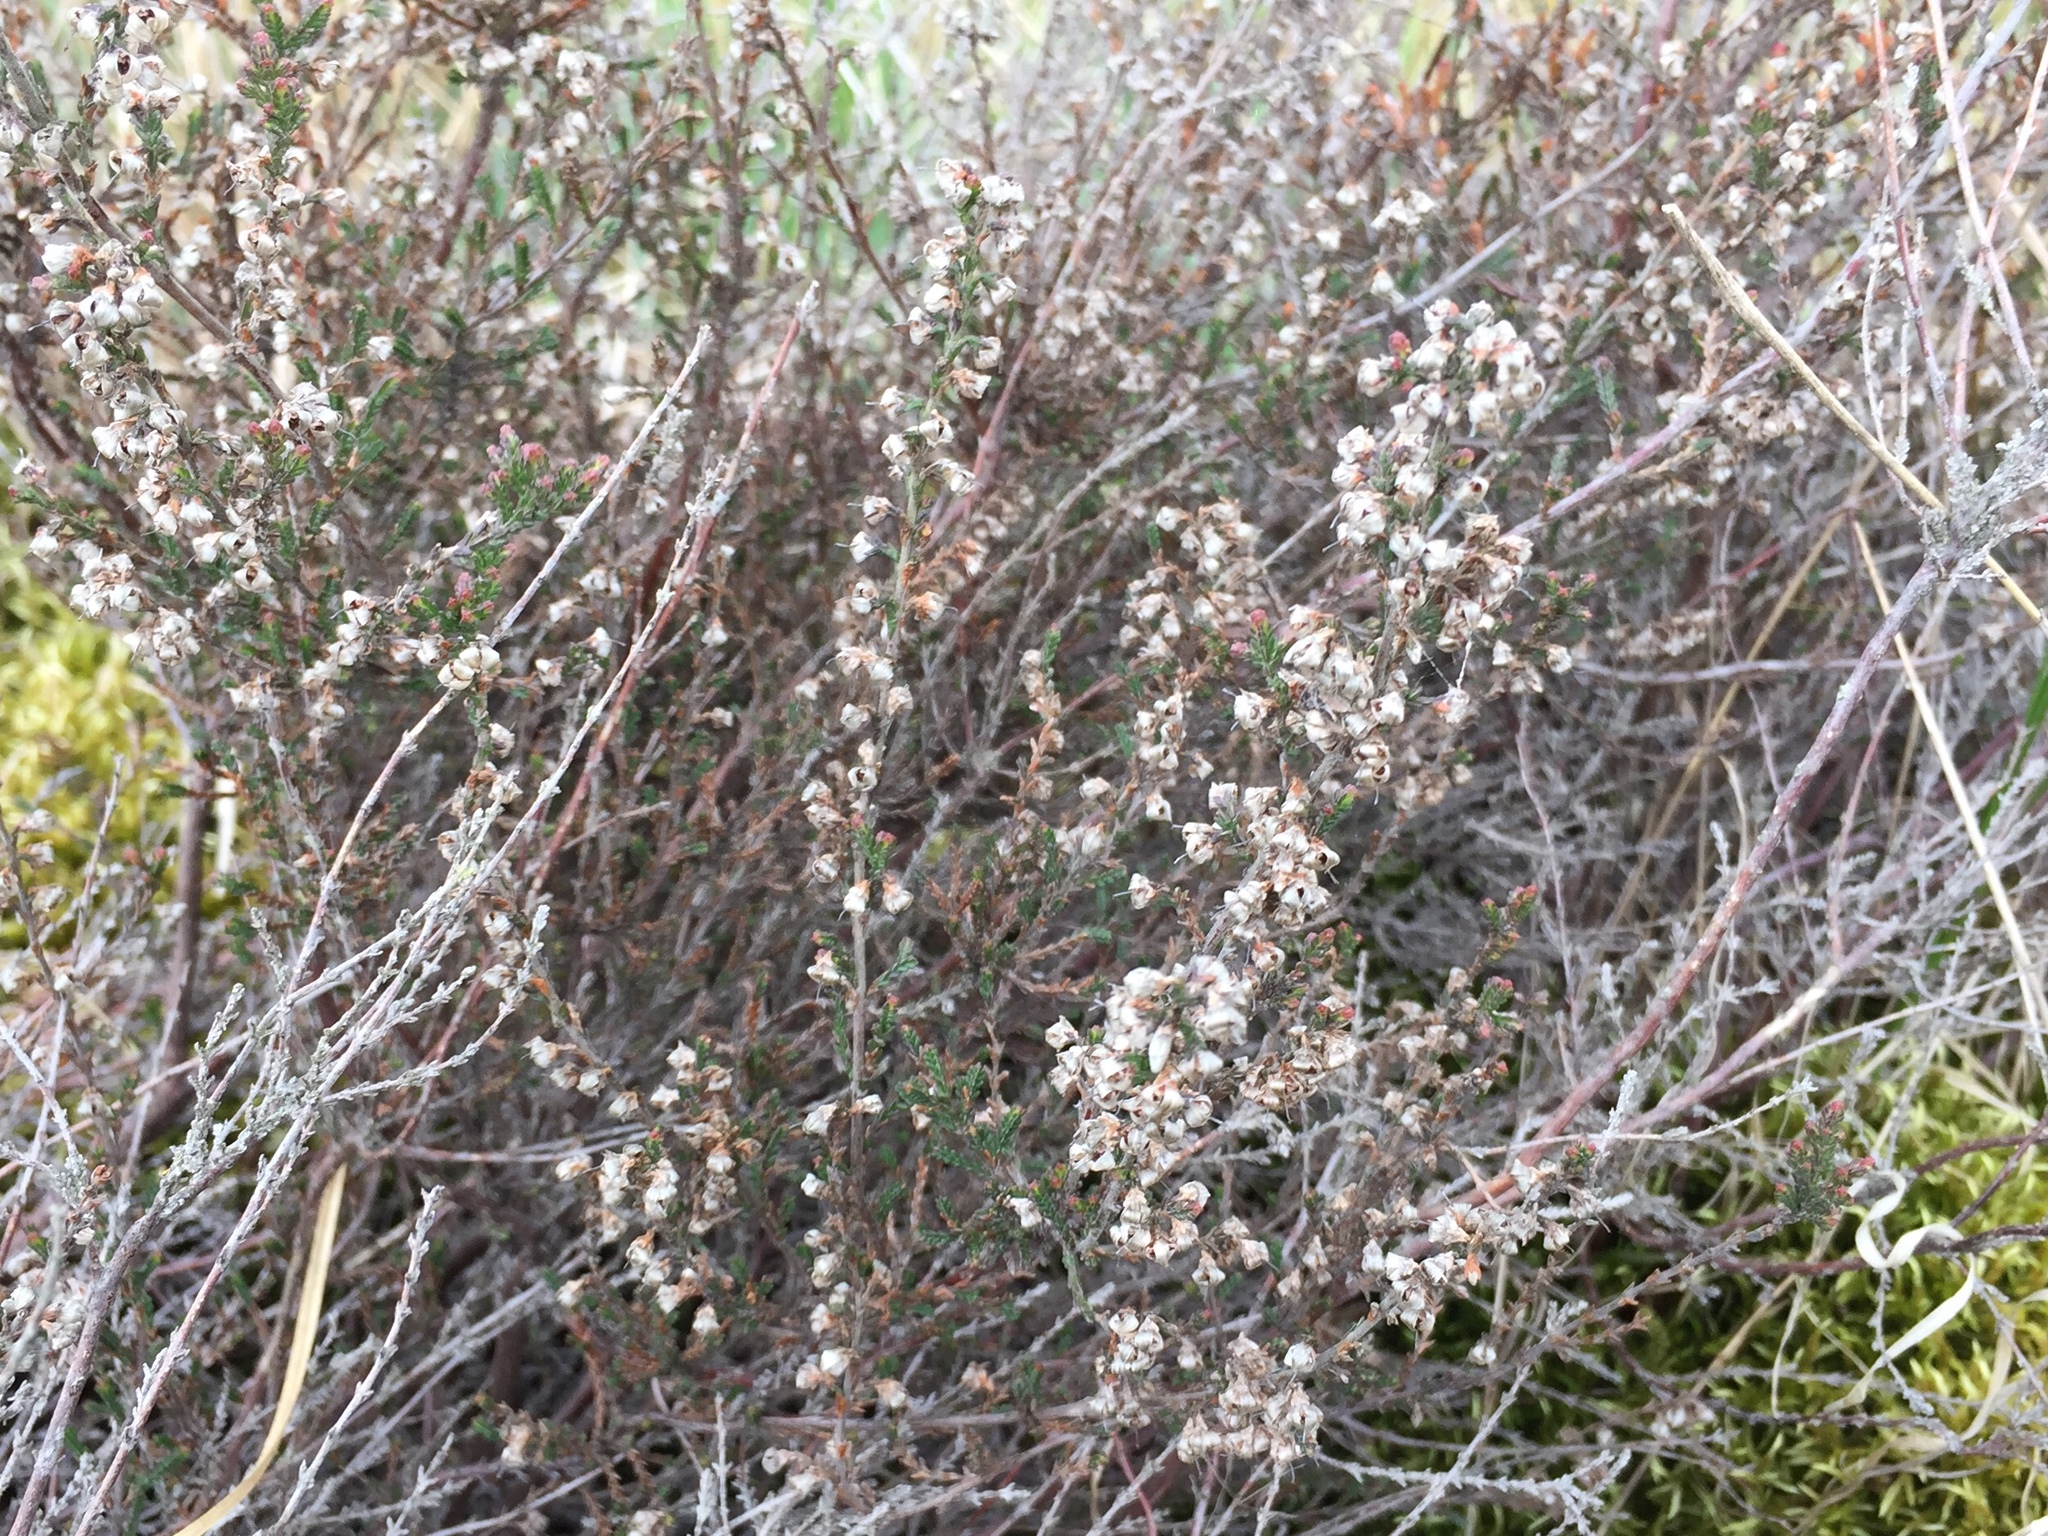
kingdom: Plantae
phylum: Tracheophyta
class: Magnoliopsida
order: Ericales
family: Ericaceae
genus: Calluna
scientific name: Calluna vulgaris
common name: Heather
